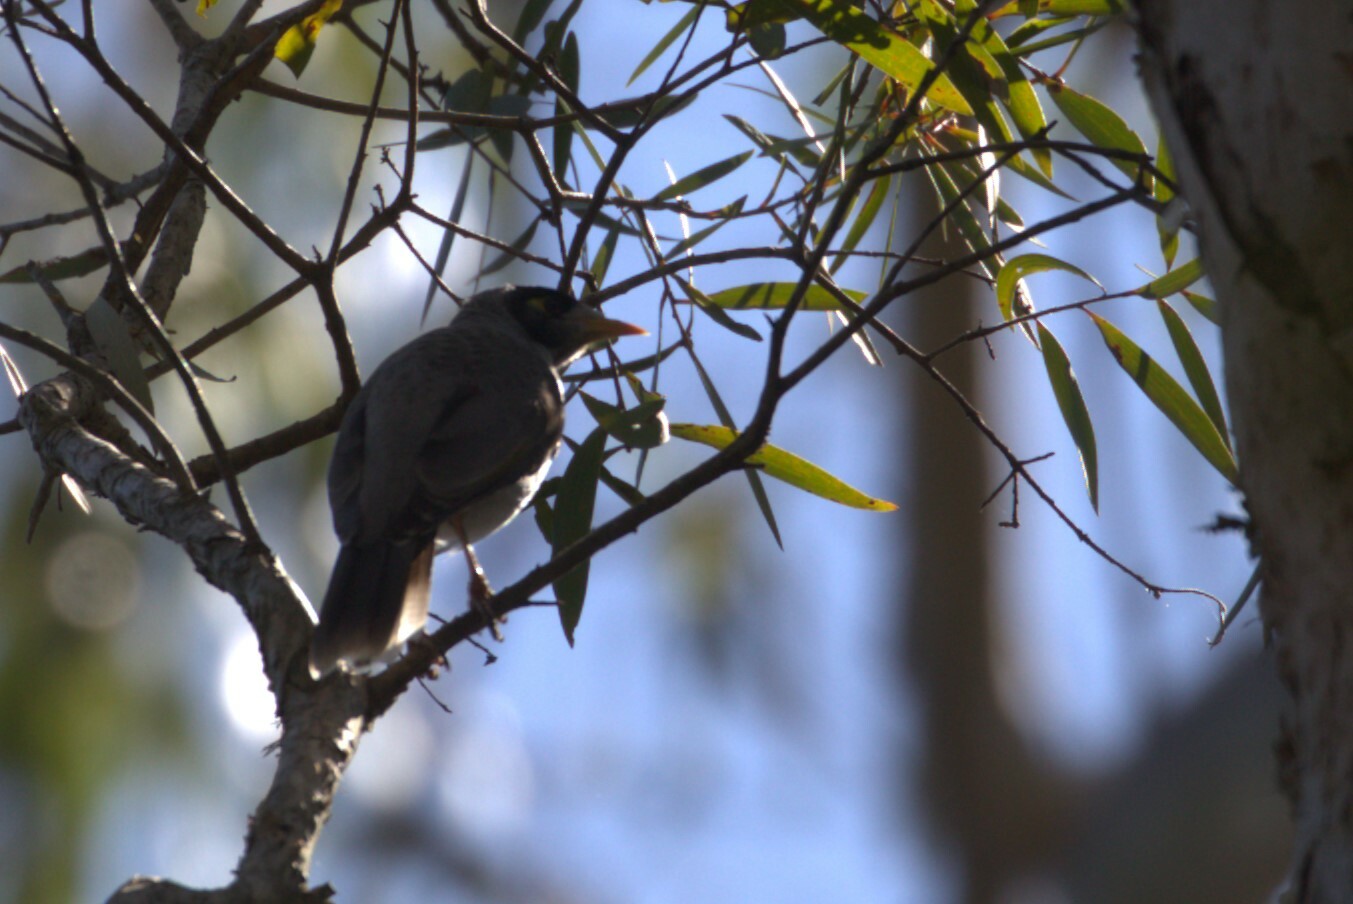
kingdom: Animalia
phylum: Chordata
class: Aves
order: Passeriformes
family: Meliphagidae
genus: Manorina
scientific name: Manorina melanocephala
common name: Noisy miner
